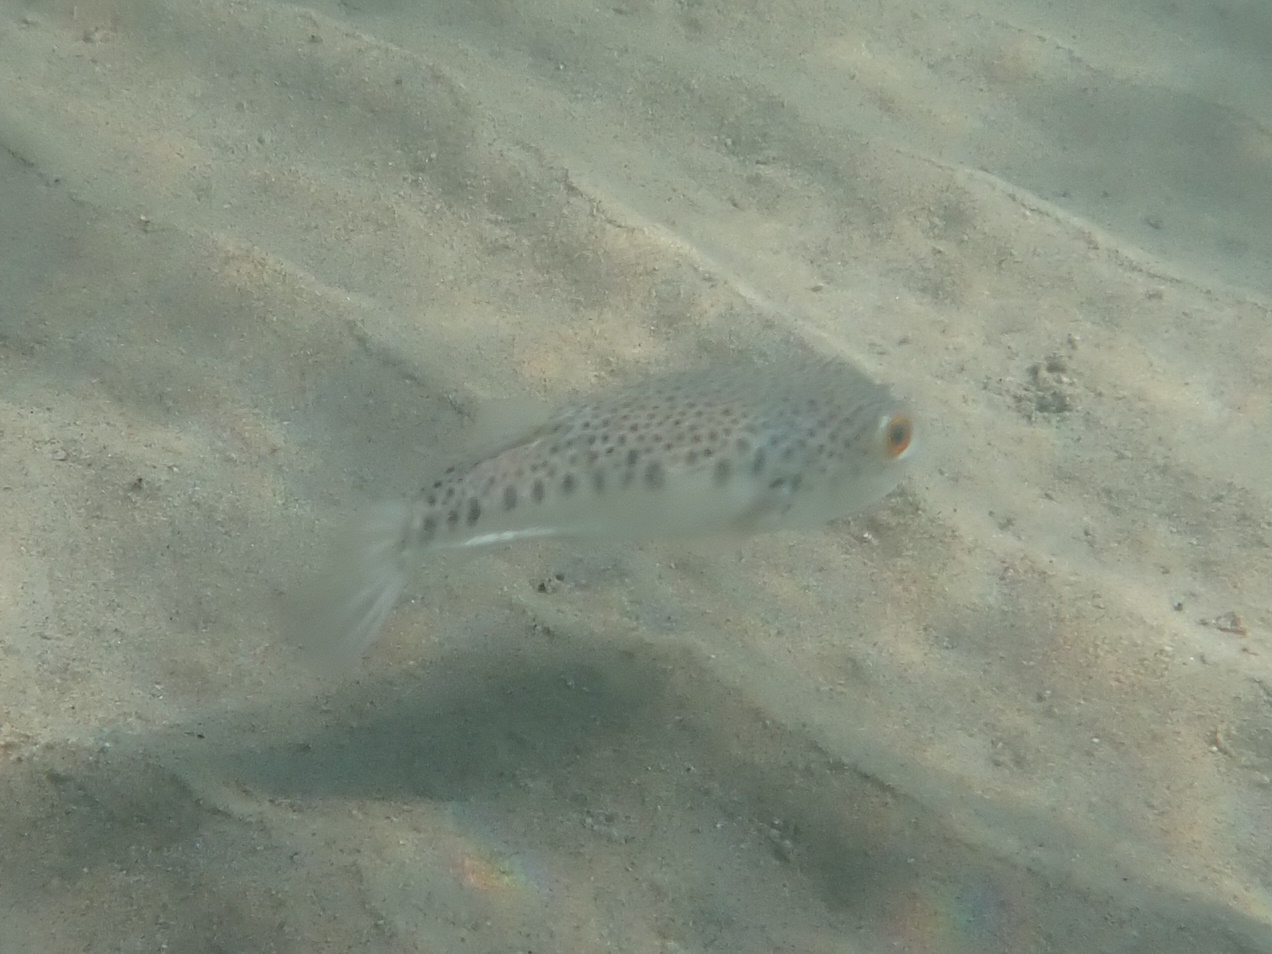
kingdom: Animalia
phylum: Chordata
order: Tetraodontiformes
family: Tetraodontidae
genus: Tetractenos
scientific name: Tetractenos hamiltoni
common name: Common toadfish
